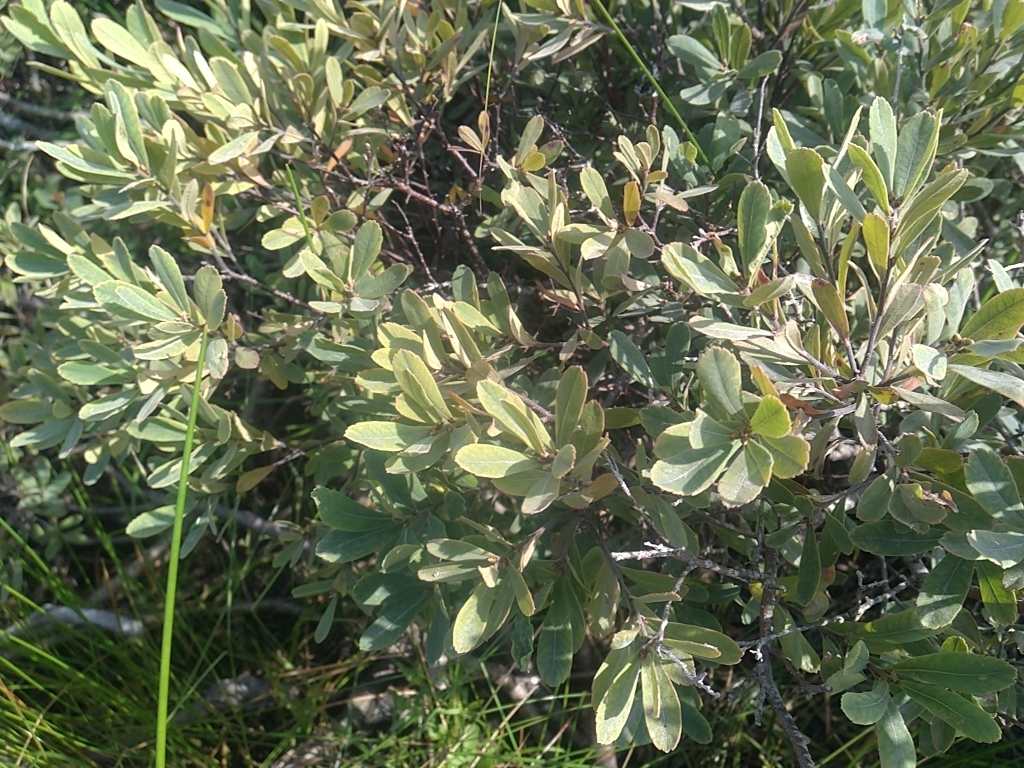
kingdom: Plantae
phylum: Tracheophyta
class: Magnoliopsida
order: Fagales
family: Myricaceae
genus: Myrica
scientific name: Myrica gale
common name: Sweet gale
